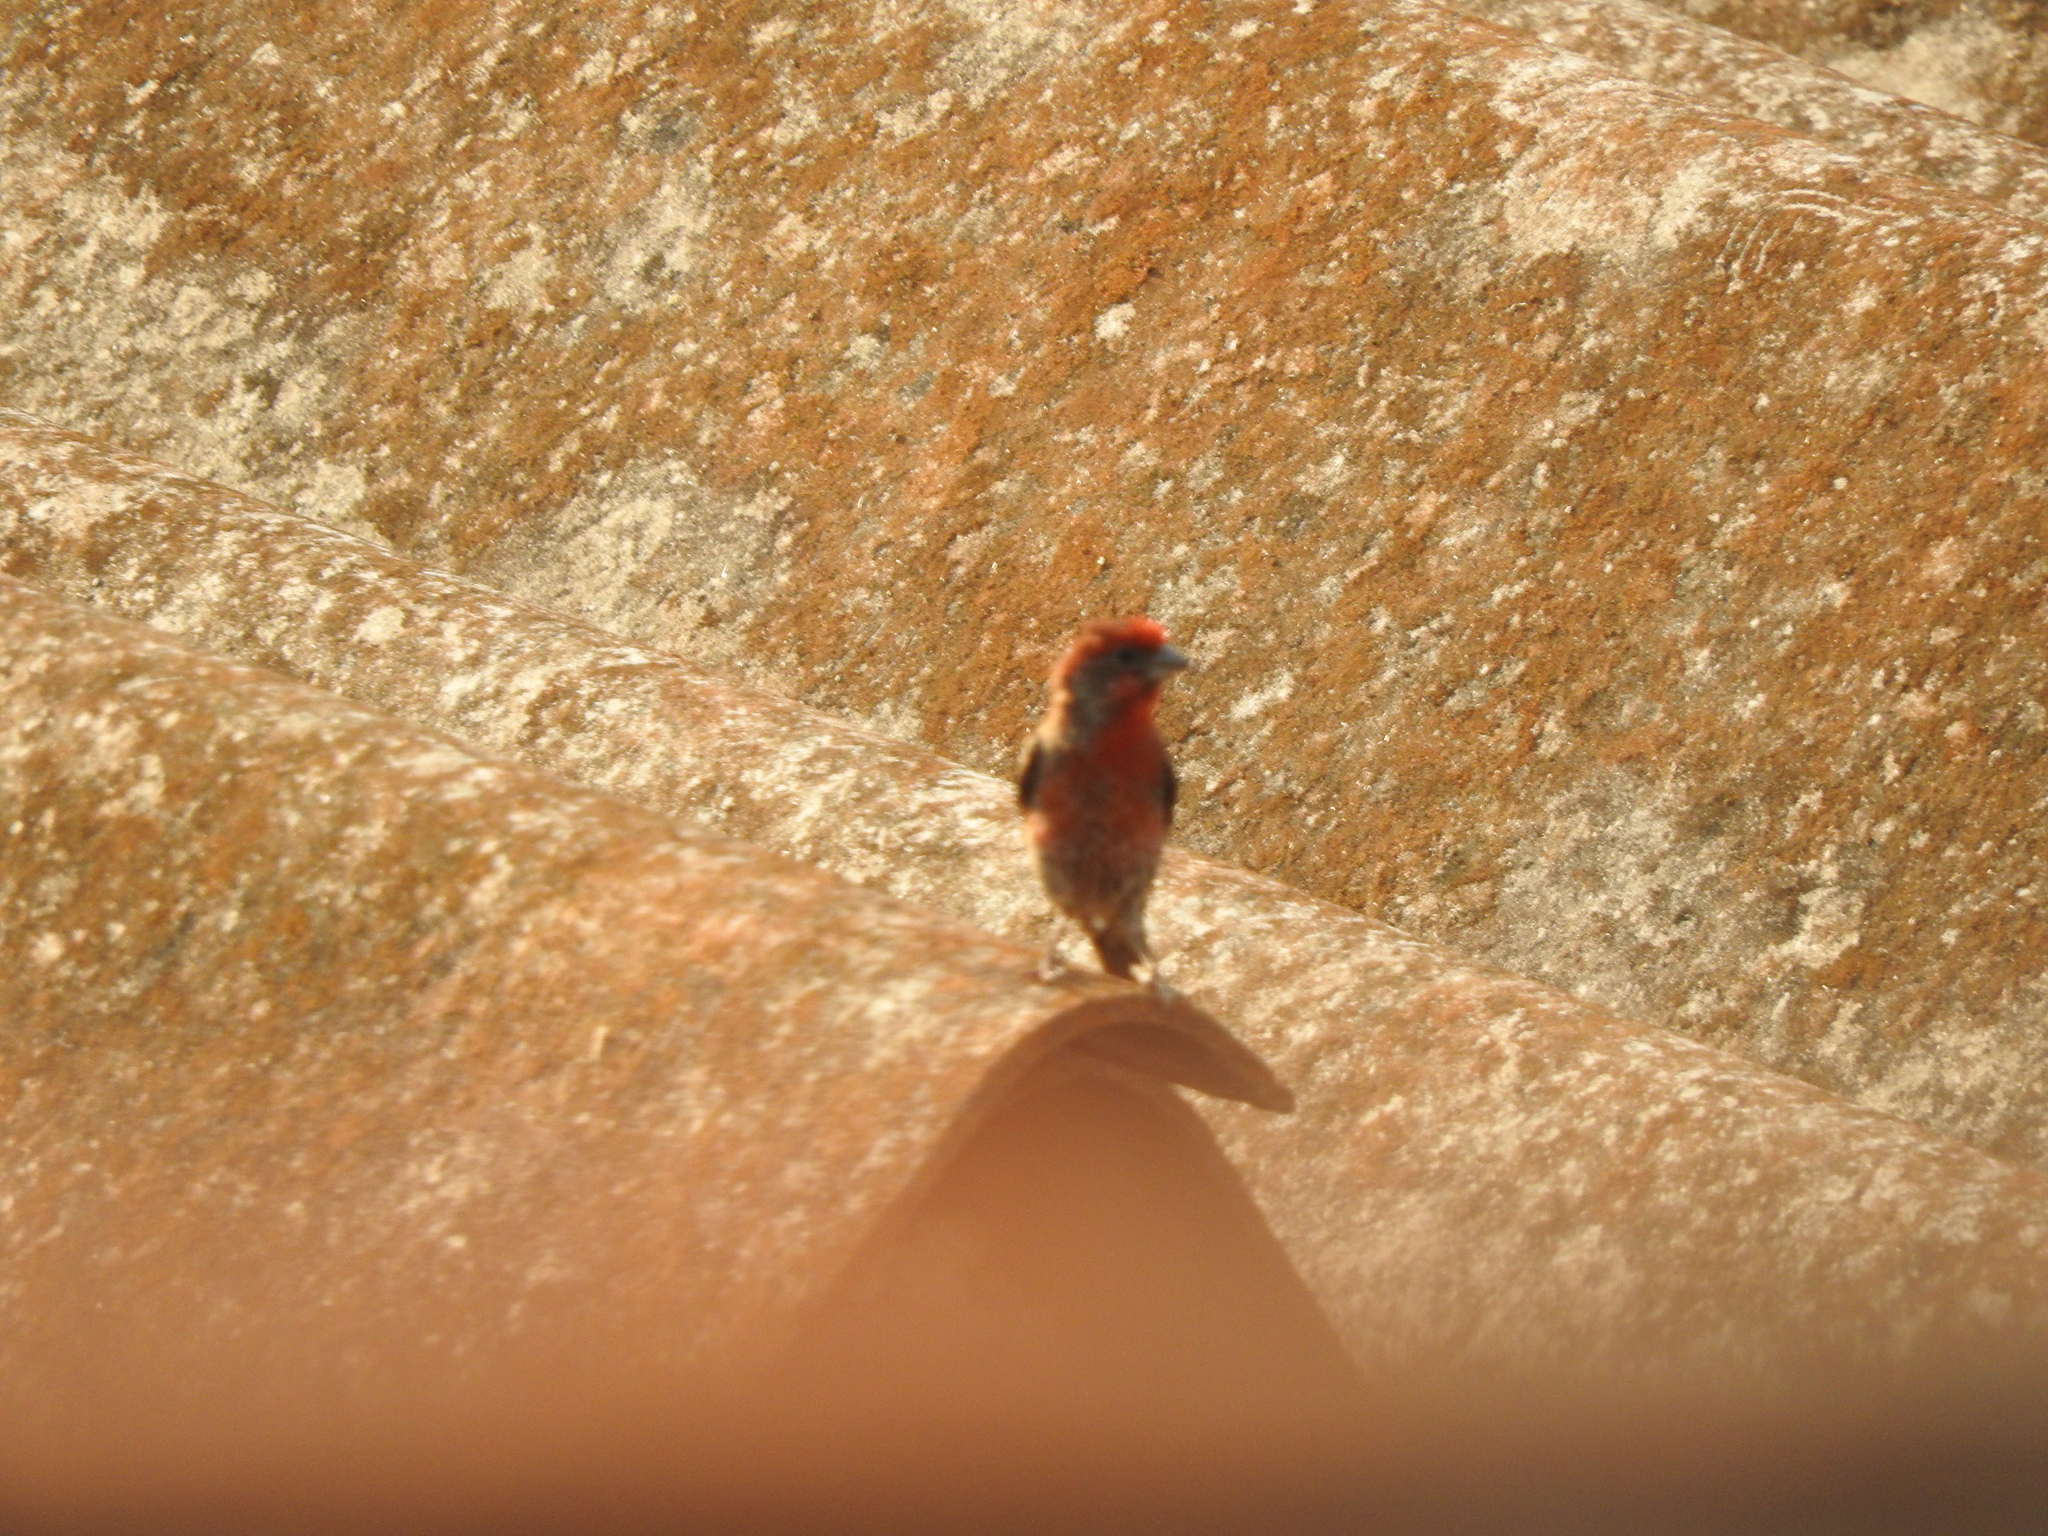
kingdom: Animalia
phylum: Chordata
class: Aves
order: Passeriformes
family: Fringillidae
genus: Haemorhous
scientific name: Haemorhous mexicanus
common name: House finch
